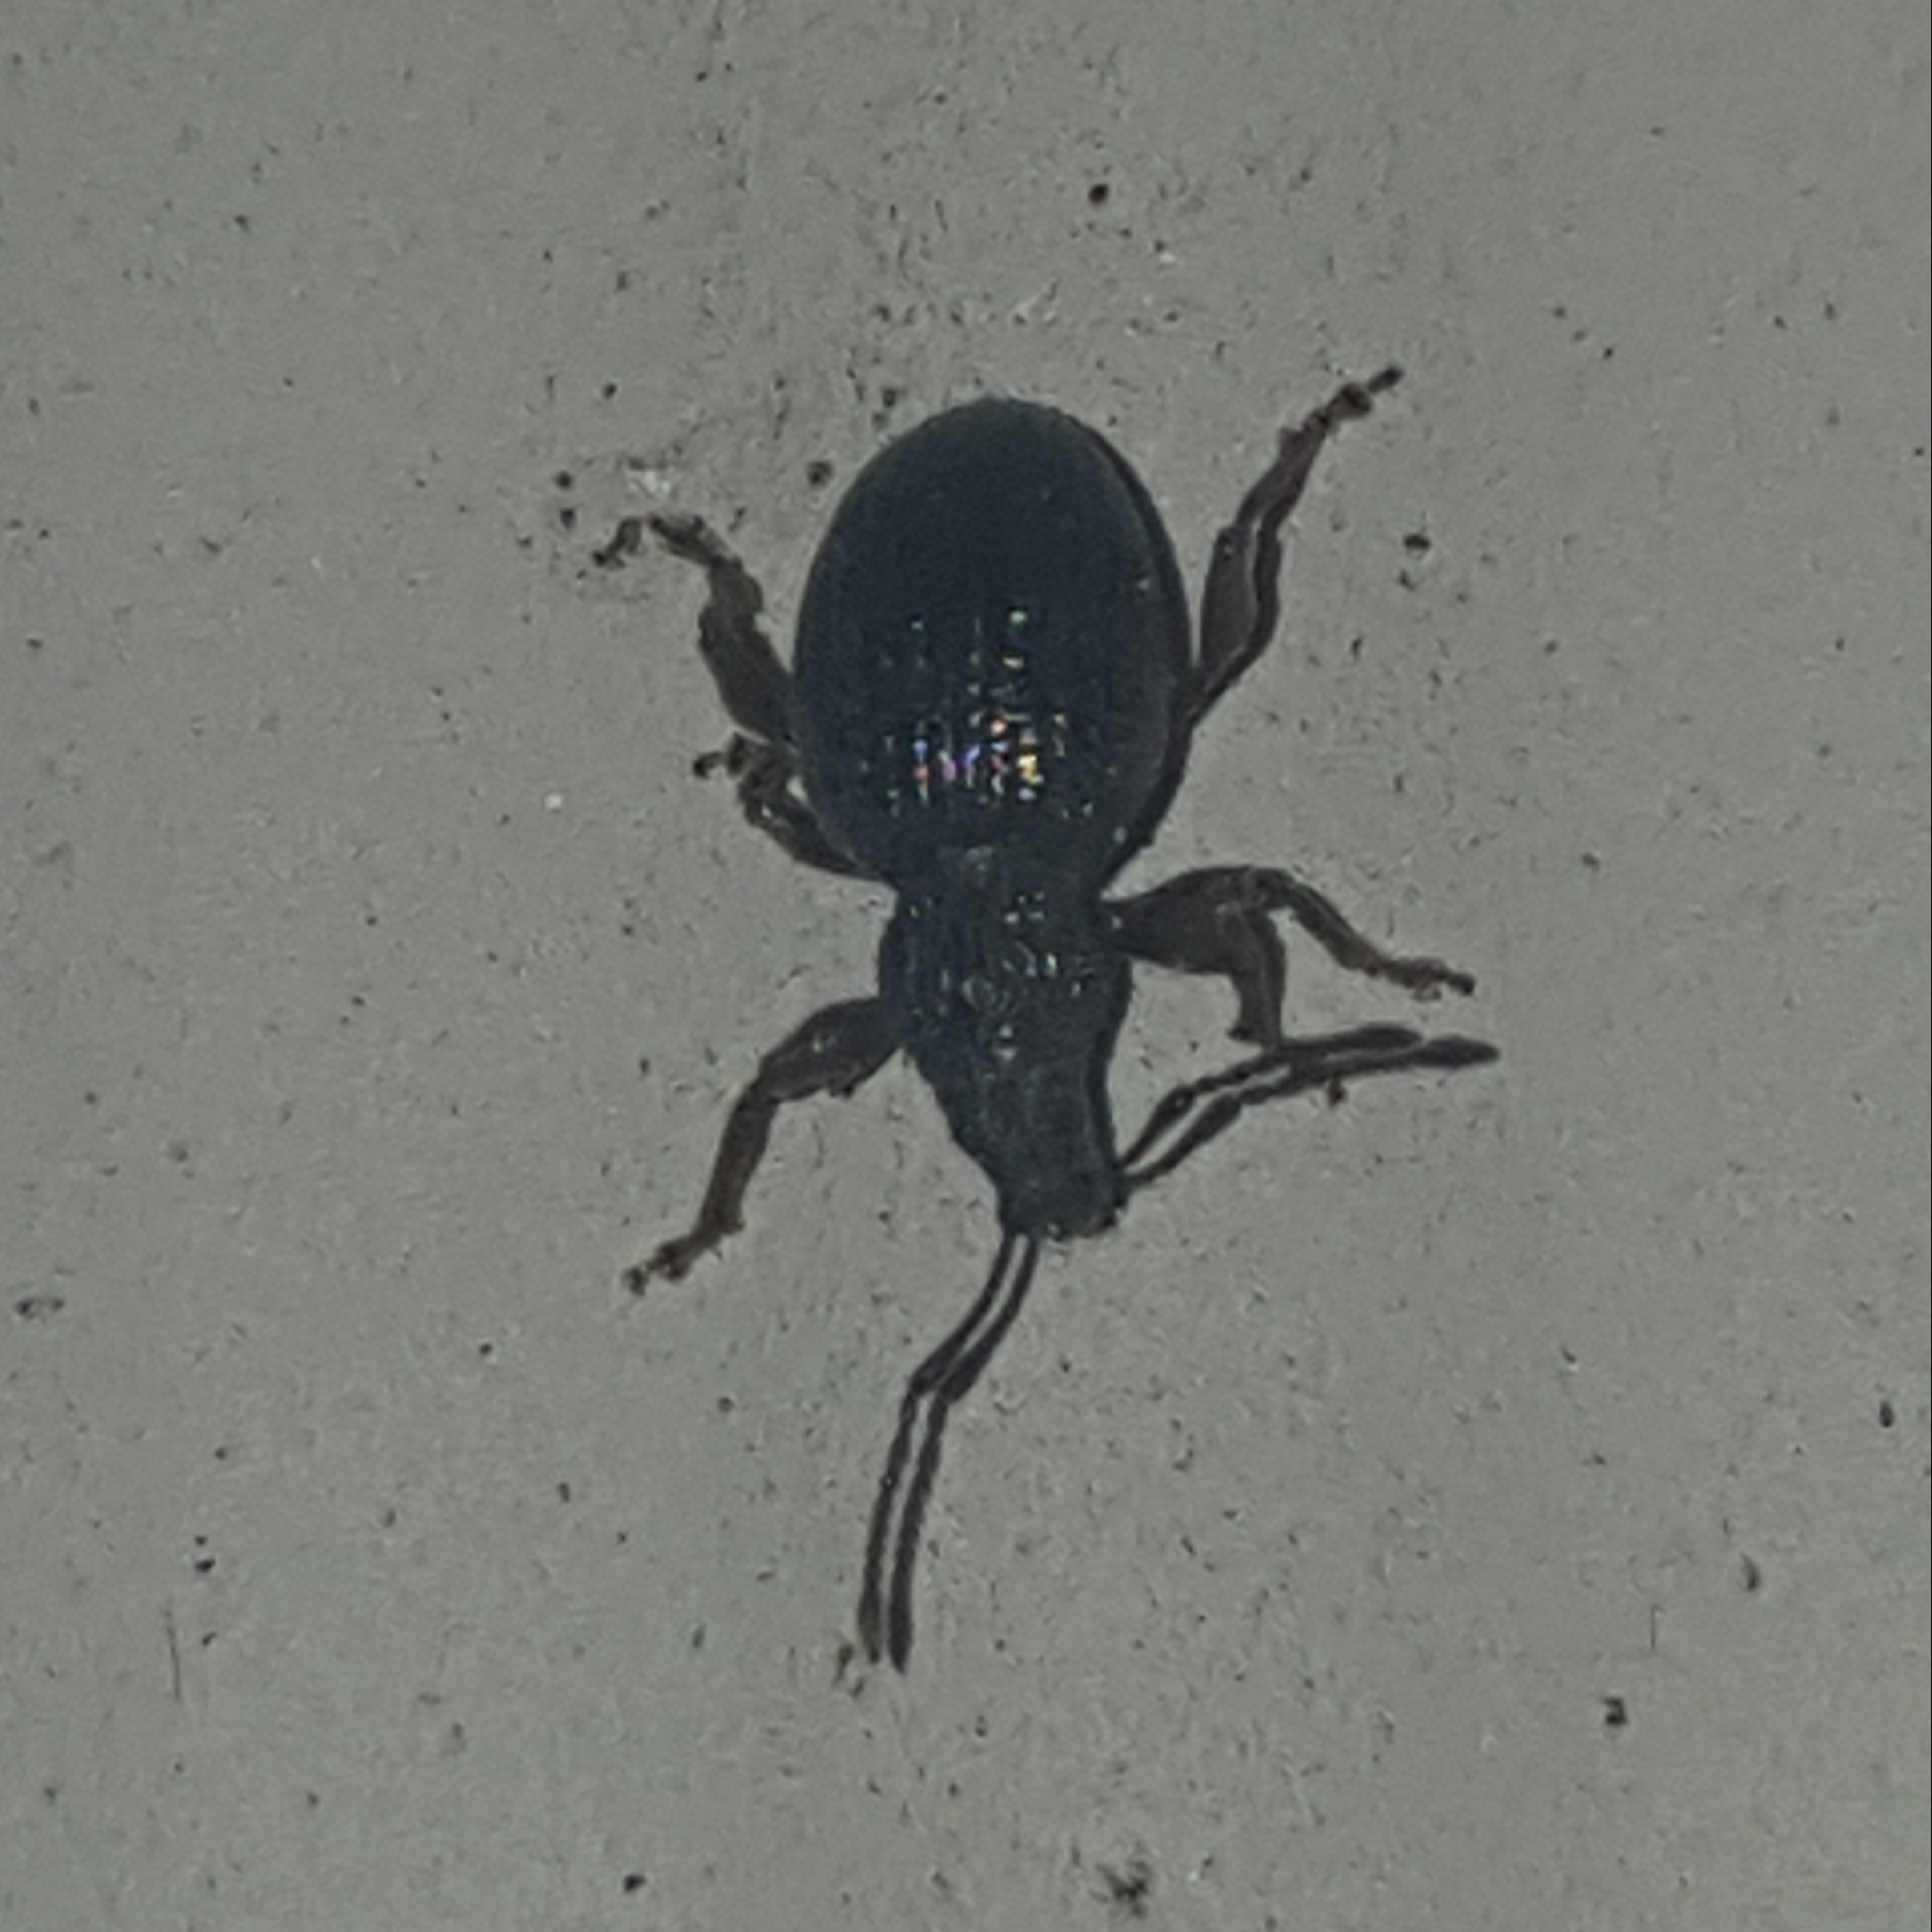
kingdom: Animalia
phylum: Arthropoda
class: Insecta
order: Coleoptera
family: Curculionidae
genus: Otiorhynchus
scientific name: Otiorhynchus ovatus
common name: Strawberry root weevil
